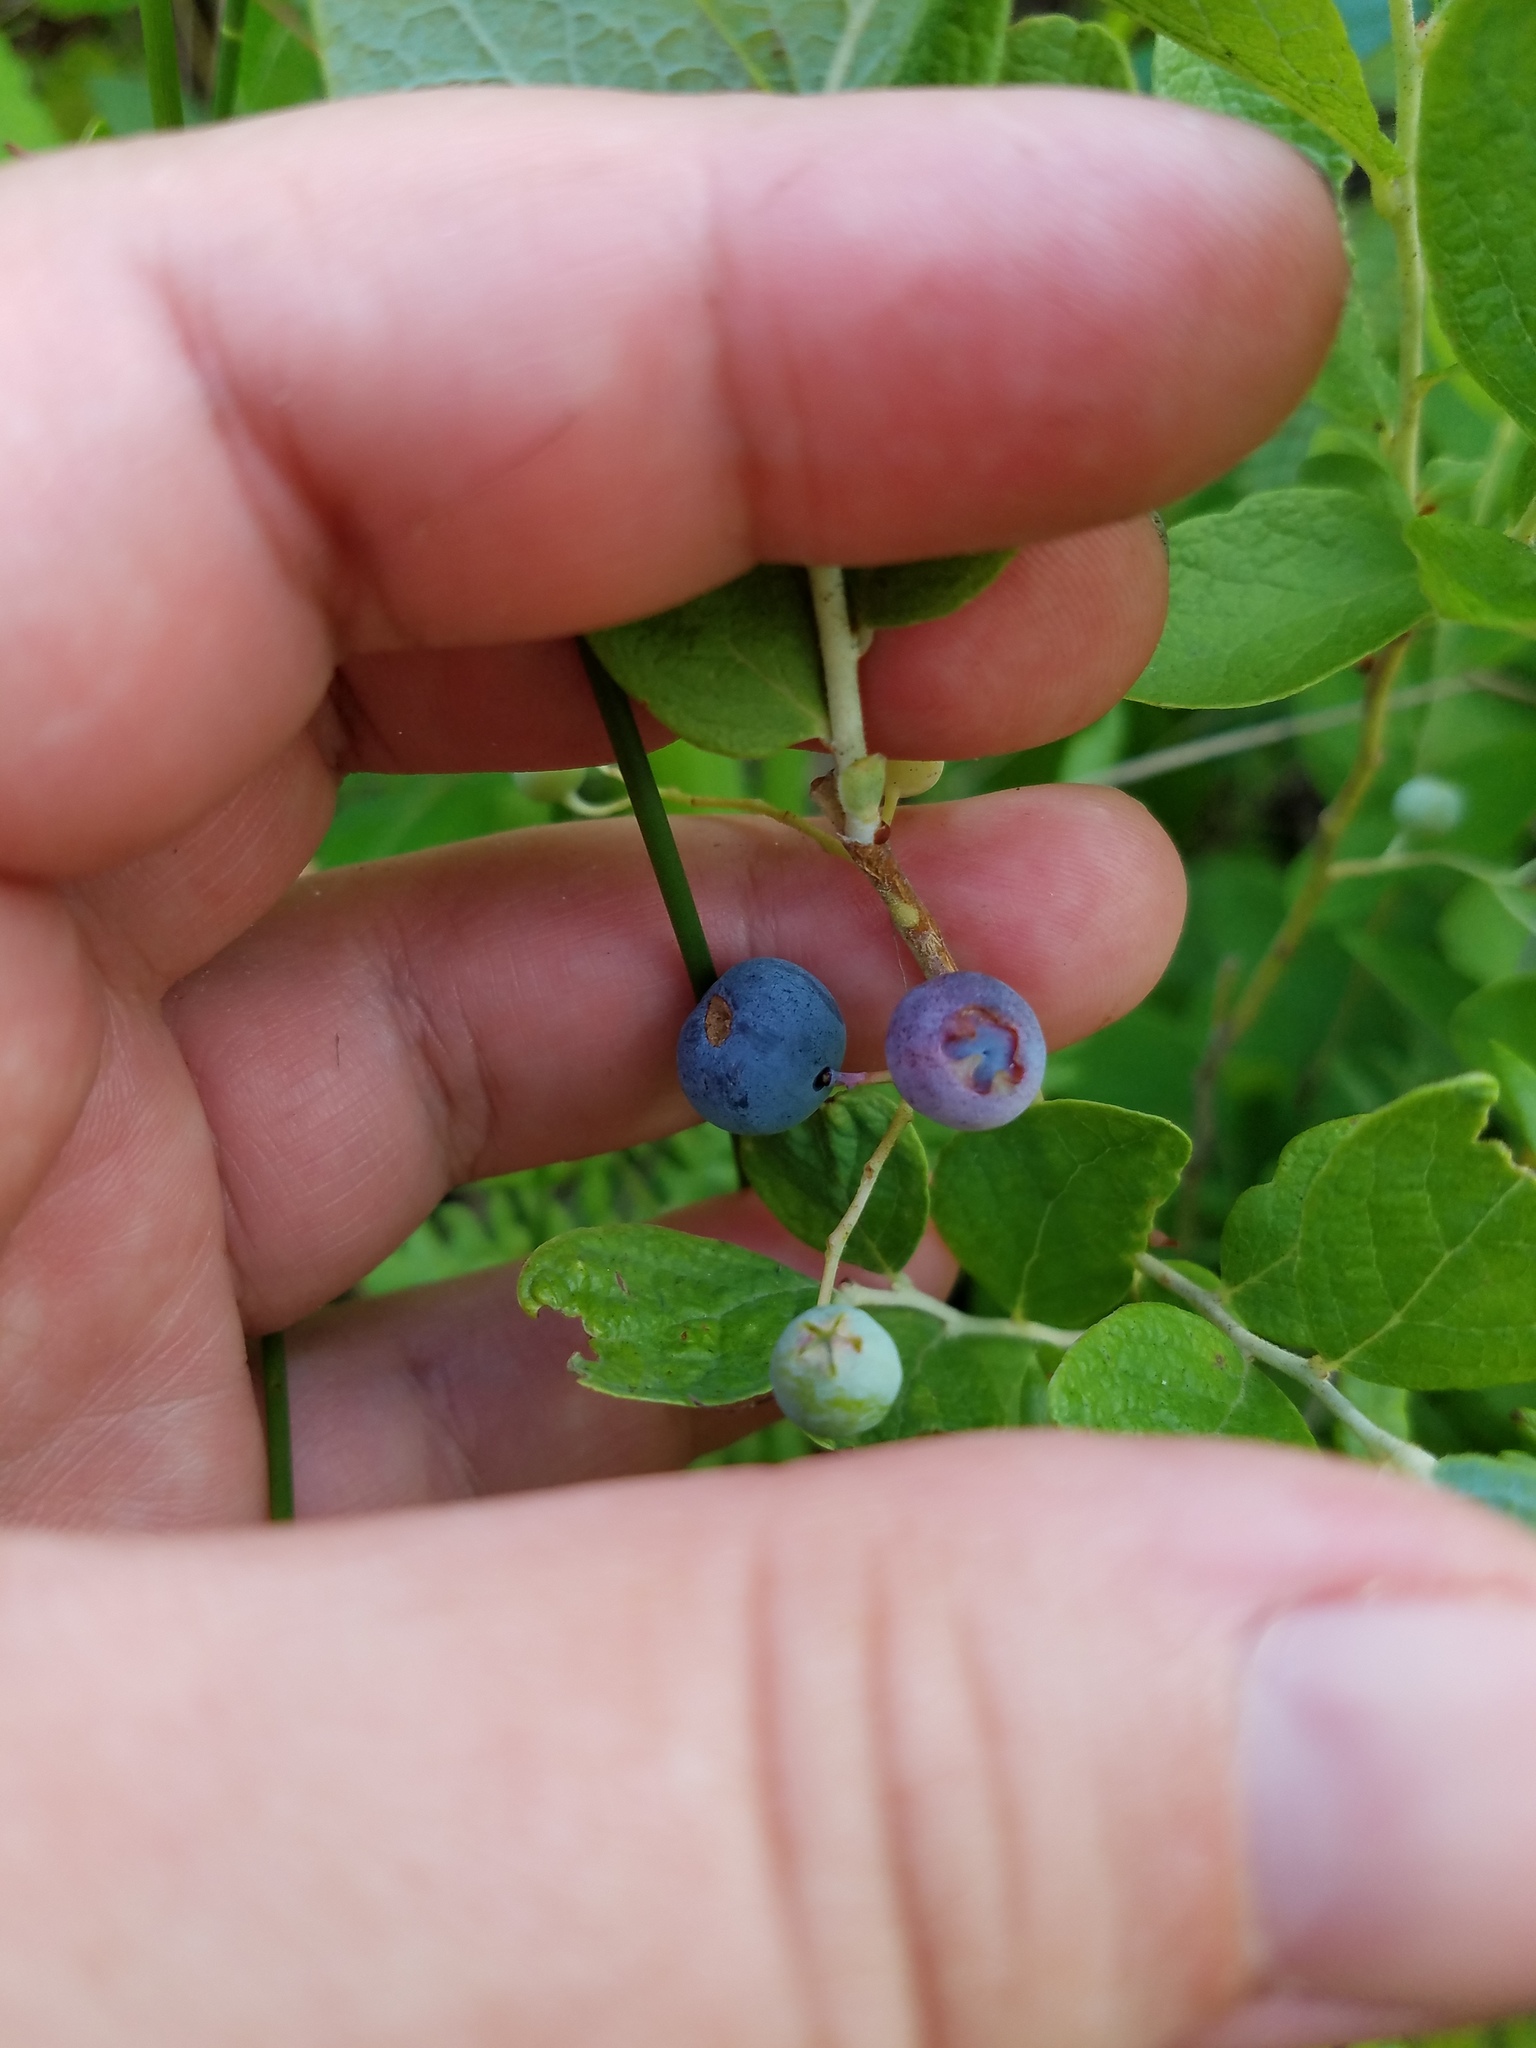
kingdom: Plantae
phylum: Tracheophyta
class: Magnoliopsida
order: Ericales
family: Ericaceae
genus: Gaylussacia
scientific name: Gaylussacia nana
